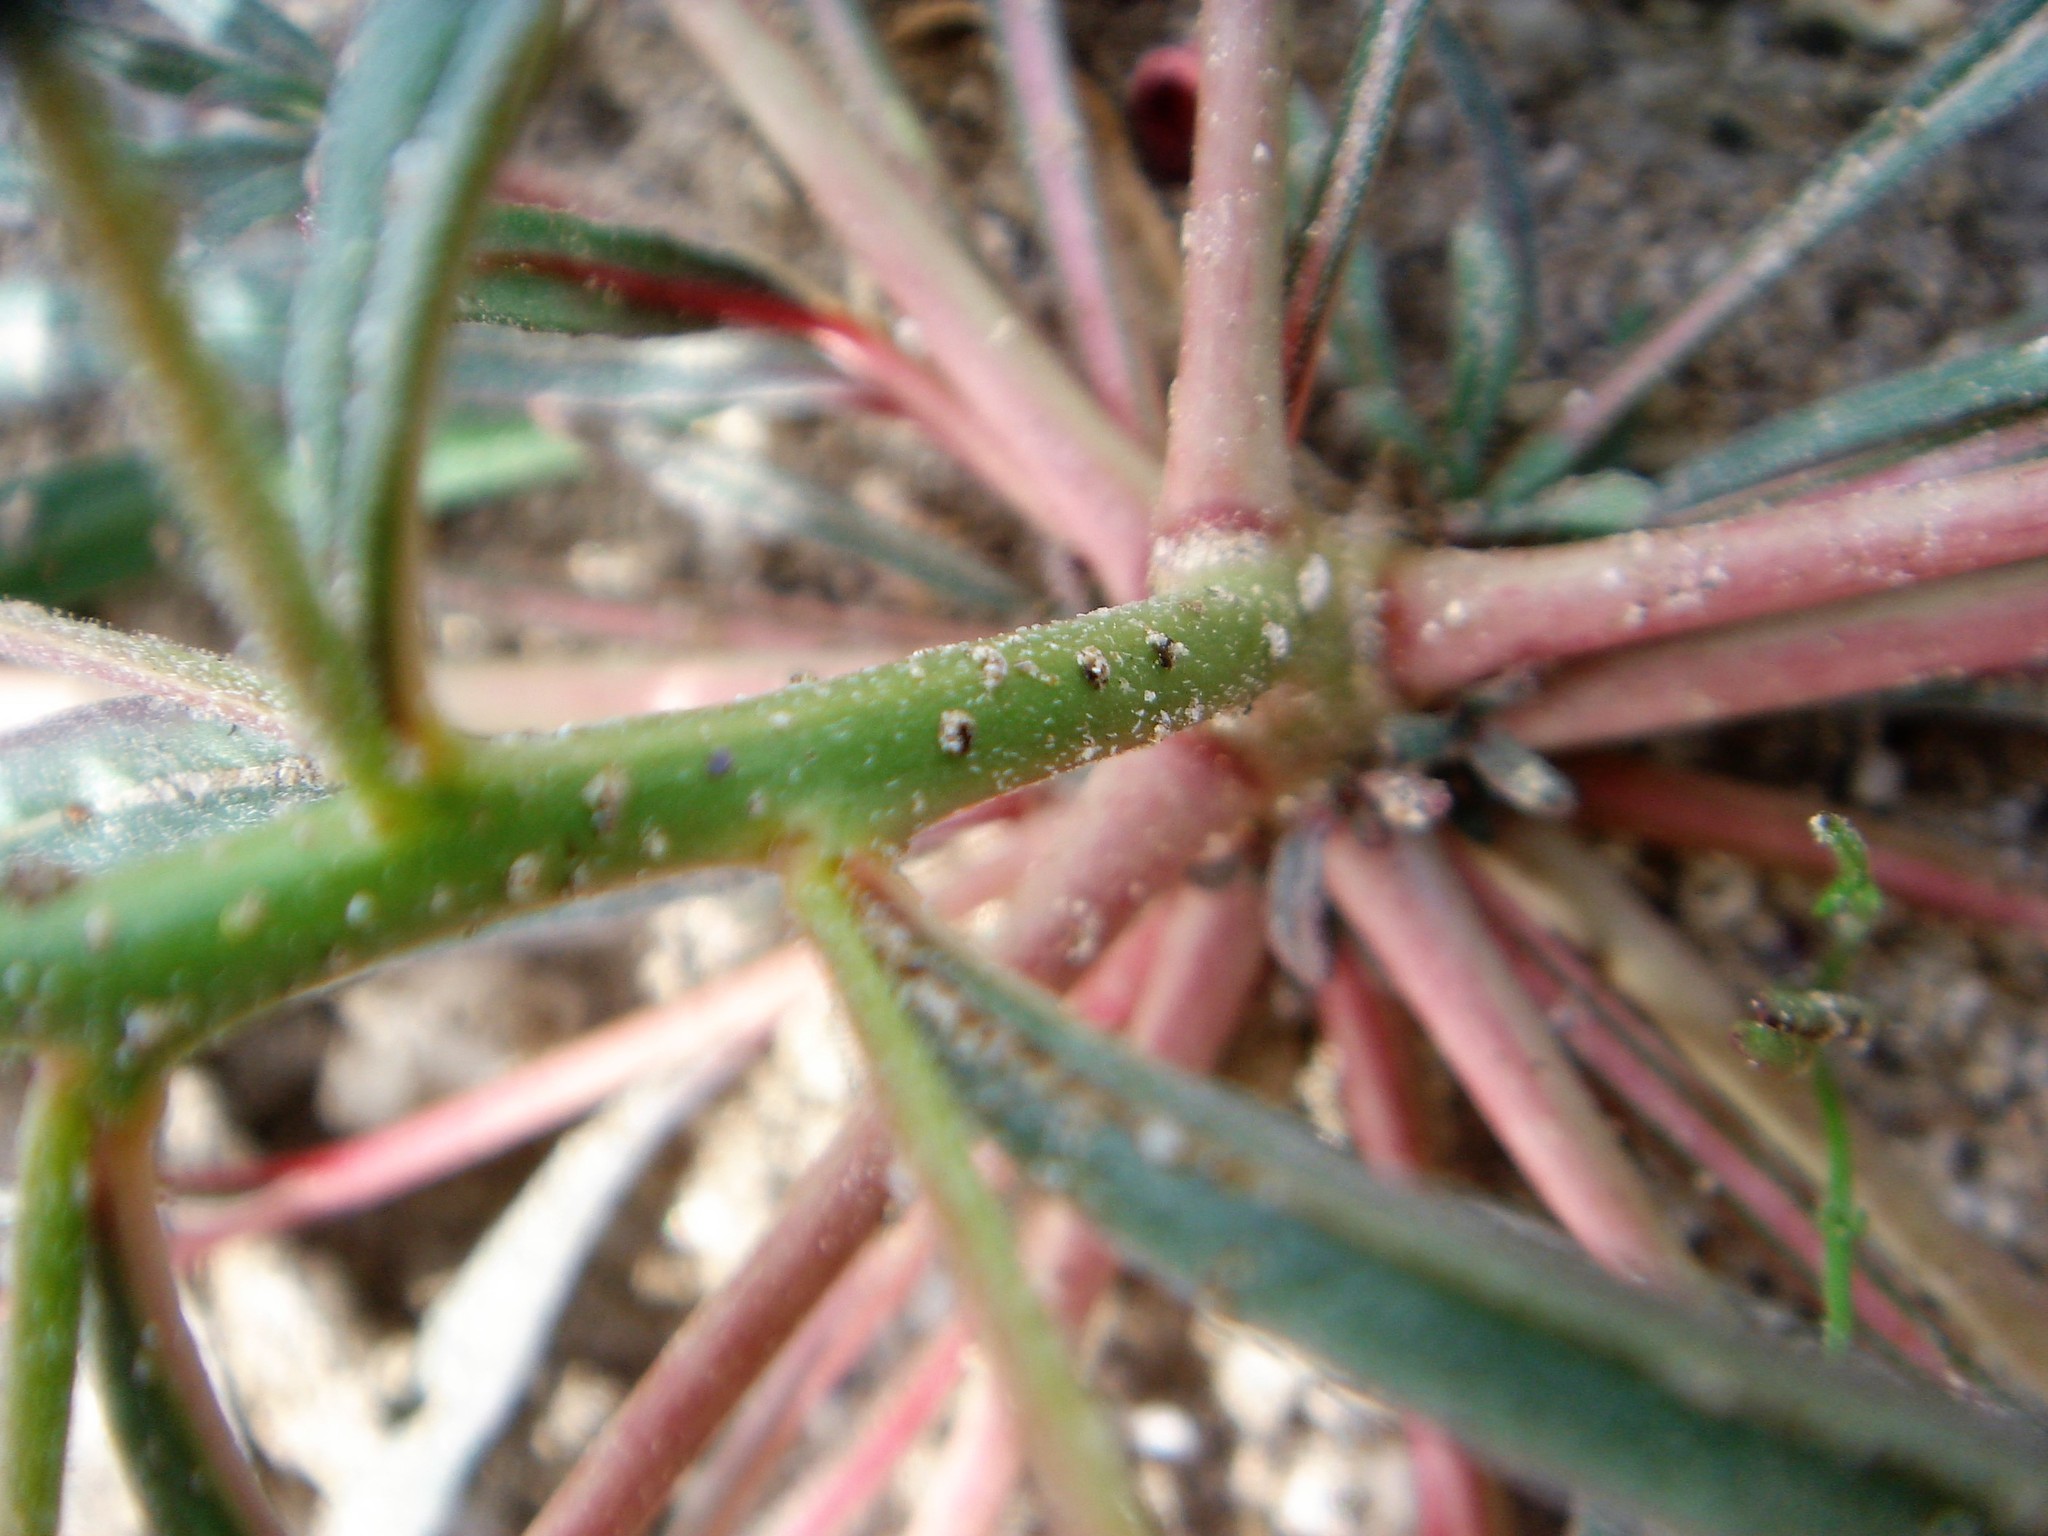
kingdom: Plantae
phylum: Tracheophyta
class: Magnoliopsida
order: Myrtales
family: Onagraceae
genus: Eremothera
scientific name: Eremothera refracta
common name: Narrowleaf suncup
